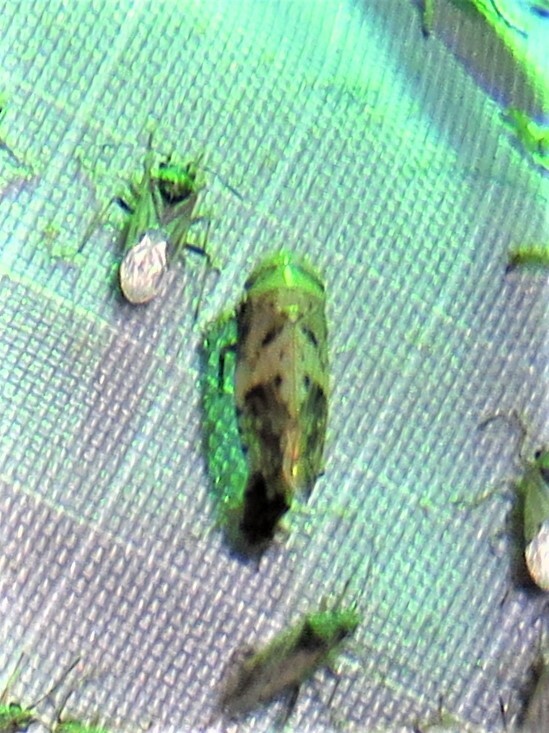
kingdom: Animalia
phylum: Arthropoda
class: Insecta
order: Hemiptera
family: Cicadellidae
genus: Menosoma
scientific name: Menosoma cinctum
